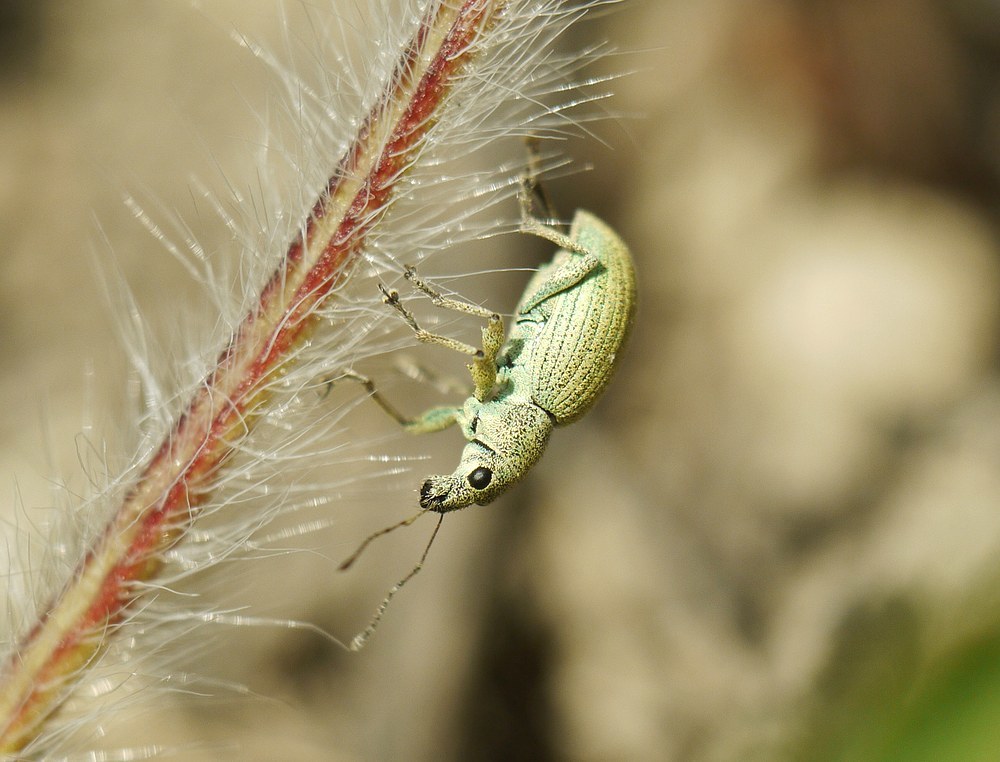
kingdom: Animalia
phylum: Arthropoda
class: Insecta
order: Coleoptera
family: Curculionidae
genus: Eusomus
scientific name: Eusomus ovulum
